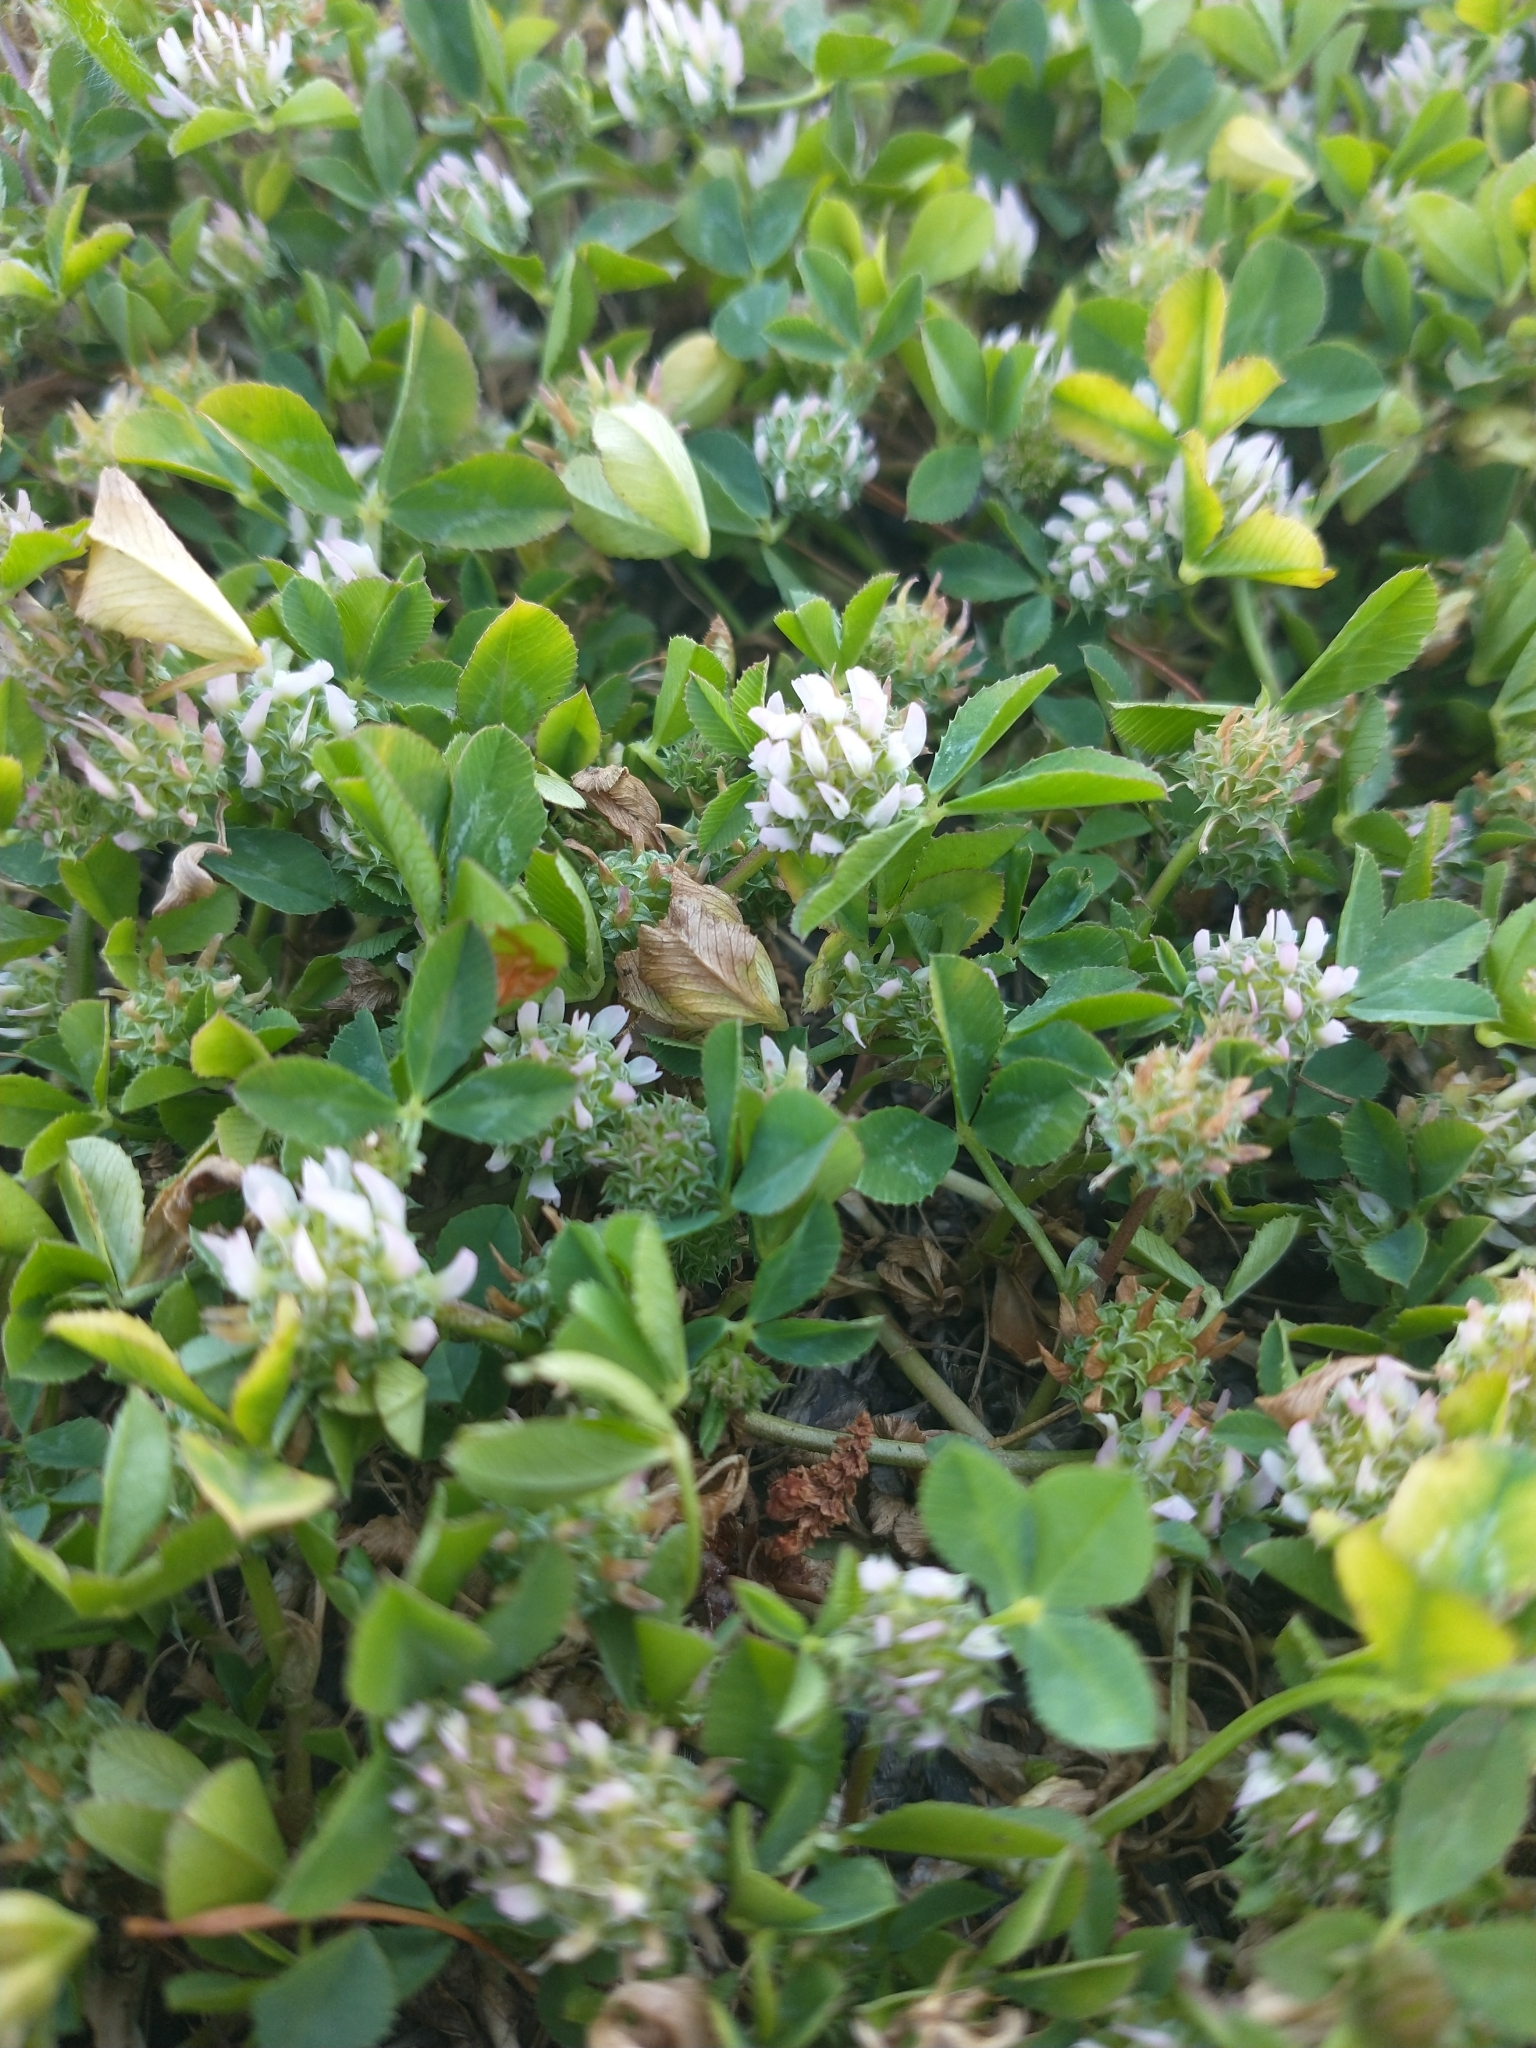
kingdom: Plantae
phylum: Tracheophyta
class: Magnoliopsida
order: Fabales
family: Fabaceae
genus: Trifolium
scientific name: Trifolium glomeratum
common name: Clustered clover
